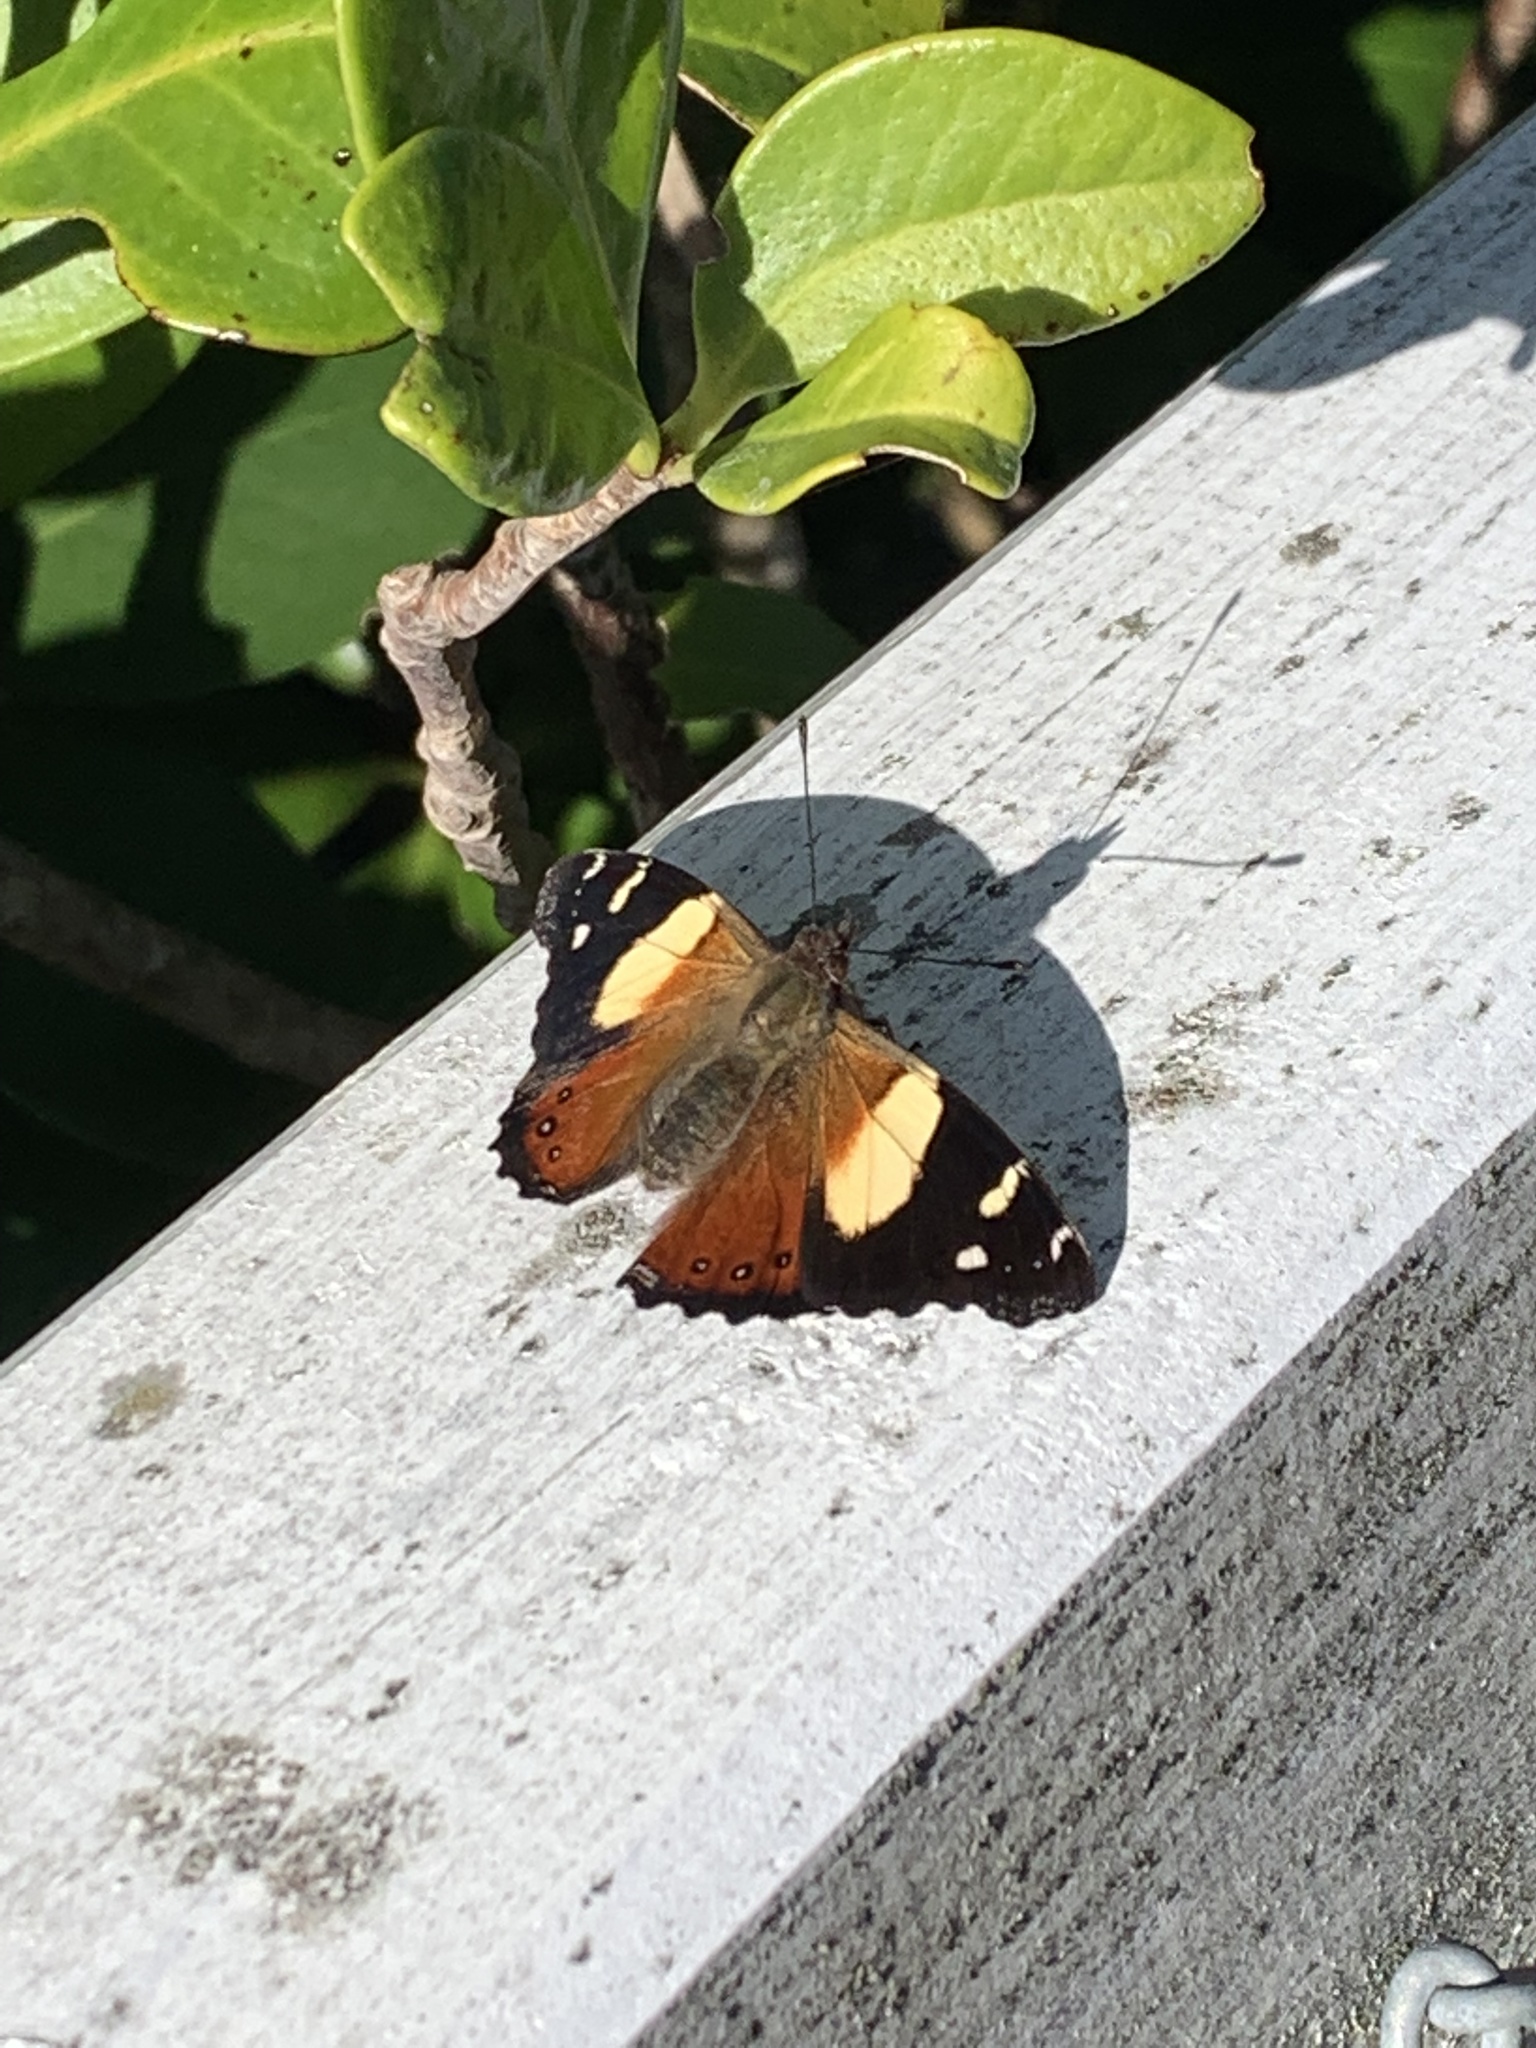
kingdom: Animalia
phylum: Arthropoda
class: Insecta
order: Lepidoptera
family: Nymphalidae
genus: Vanessa
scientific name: Vanessa itea
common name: Yellow admiral
